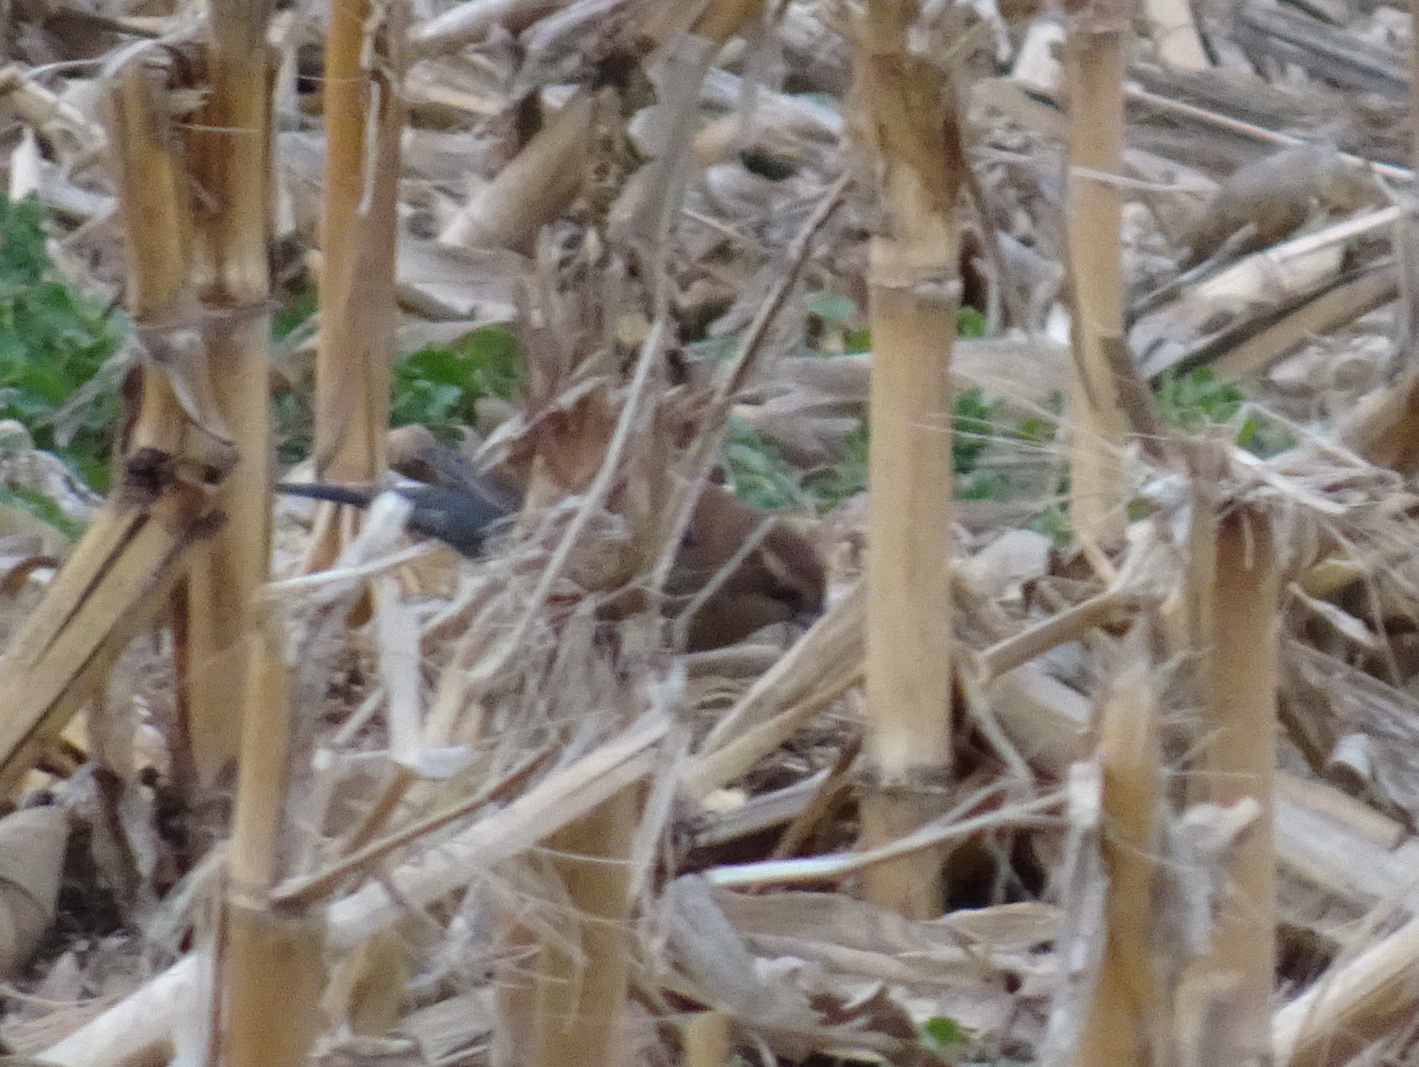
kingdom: Animalia
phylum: Chordata
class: Aves
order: Passeriformes
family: Icteridae
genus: Euphagus
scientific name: Euphagus carolinus
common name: Rusty blackbird
